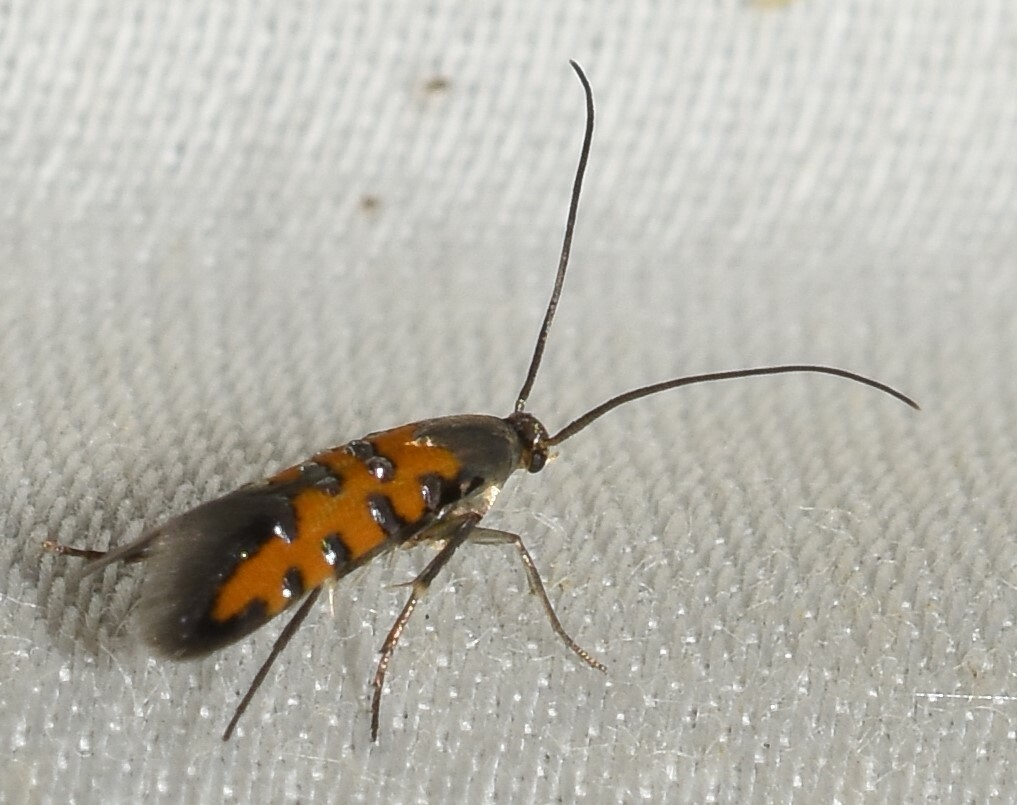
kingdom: Animalia
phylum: Arthropoda
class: Insecta
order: Lepidoptera
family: Heliodinidae
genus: Lamprolophus
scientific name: Lamprolophus Embola ionis
